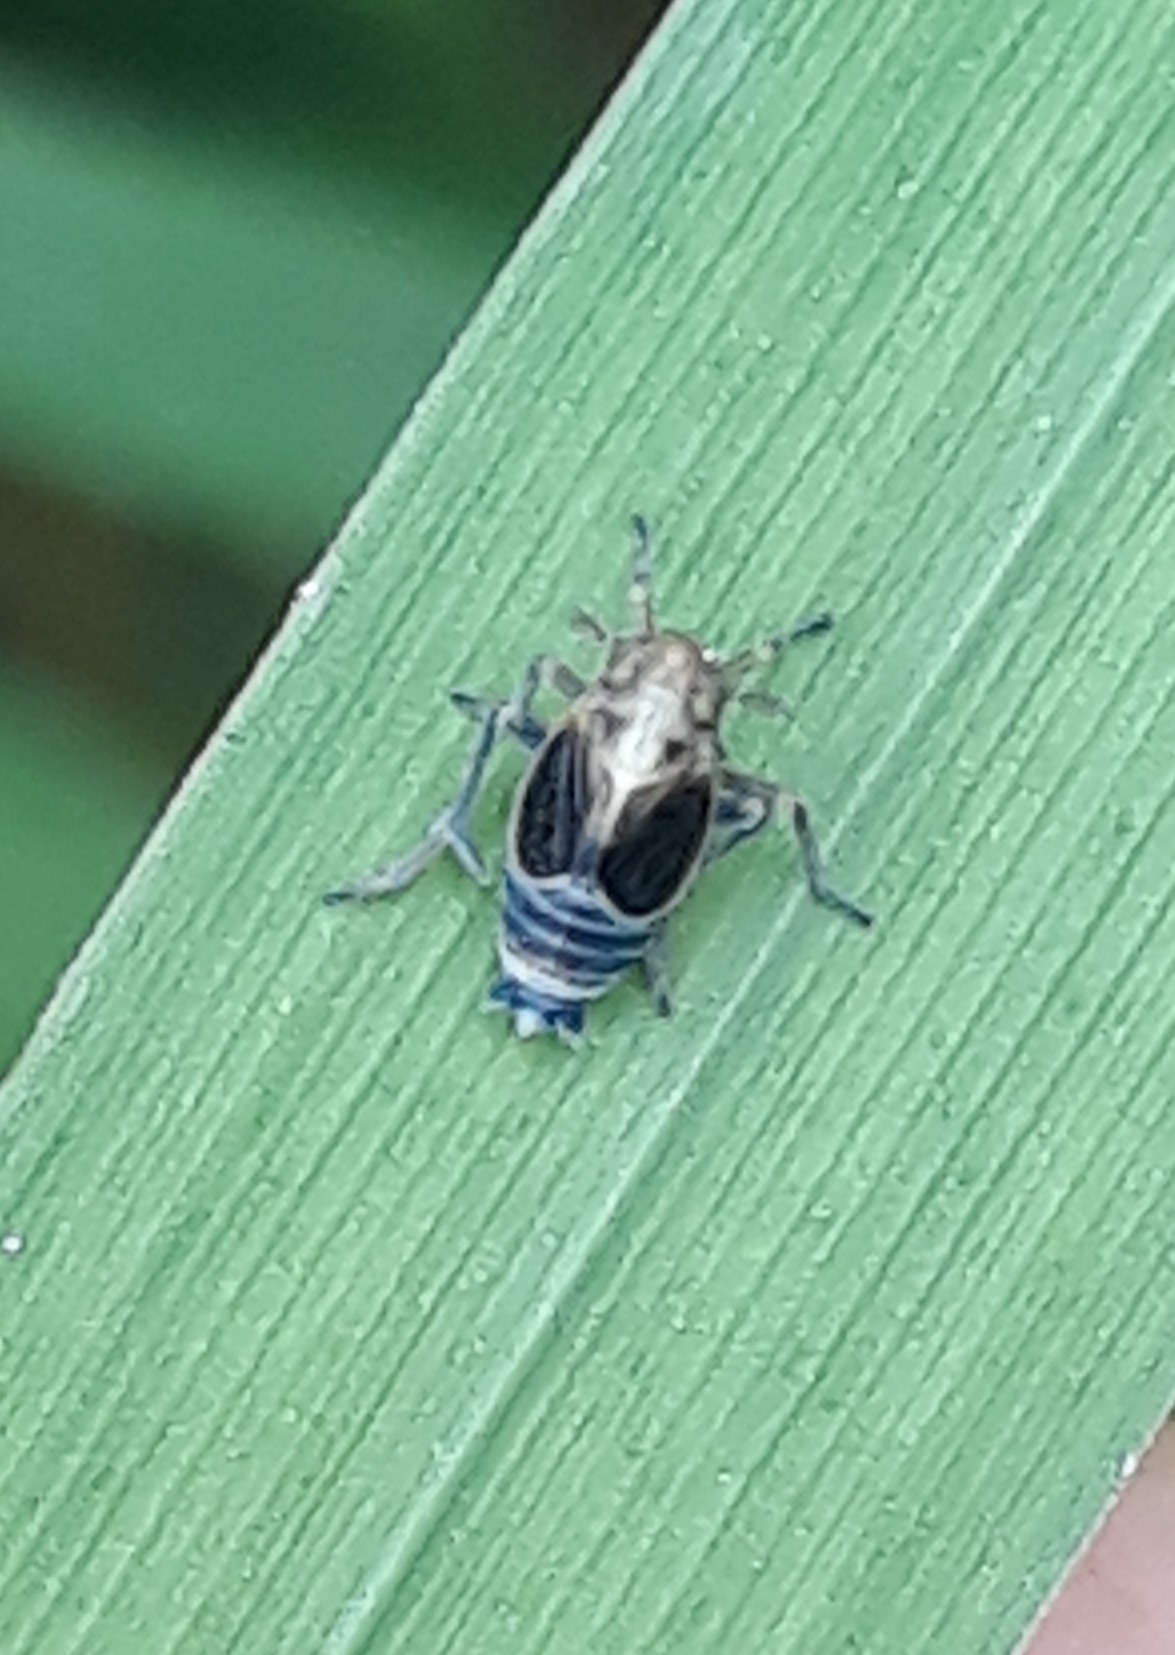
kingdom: Animalia
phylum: Arthropoda
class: Insecta
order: Hemiptera
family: Delphacidae
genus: Struebingianella
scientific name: Struebingianella lugubrina
